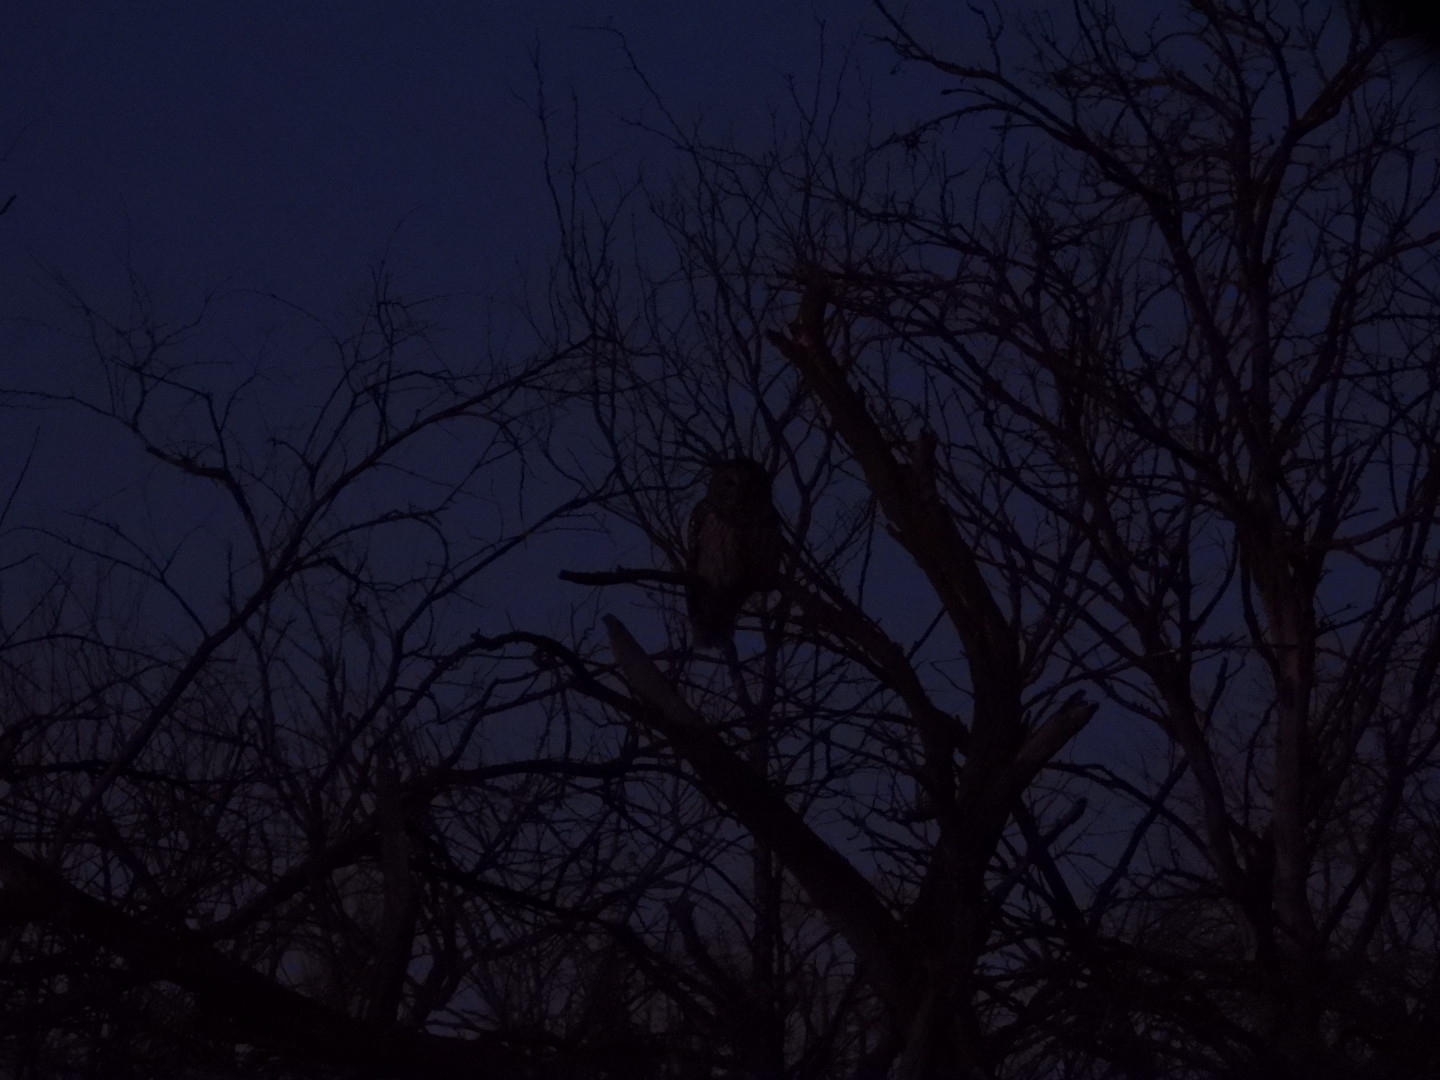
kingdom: Animalia
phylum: Chordata
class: Aves
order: Strigiformes
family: Strigidae
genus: Strix
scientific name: Strix varia
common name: Barred owl
